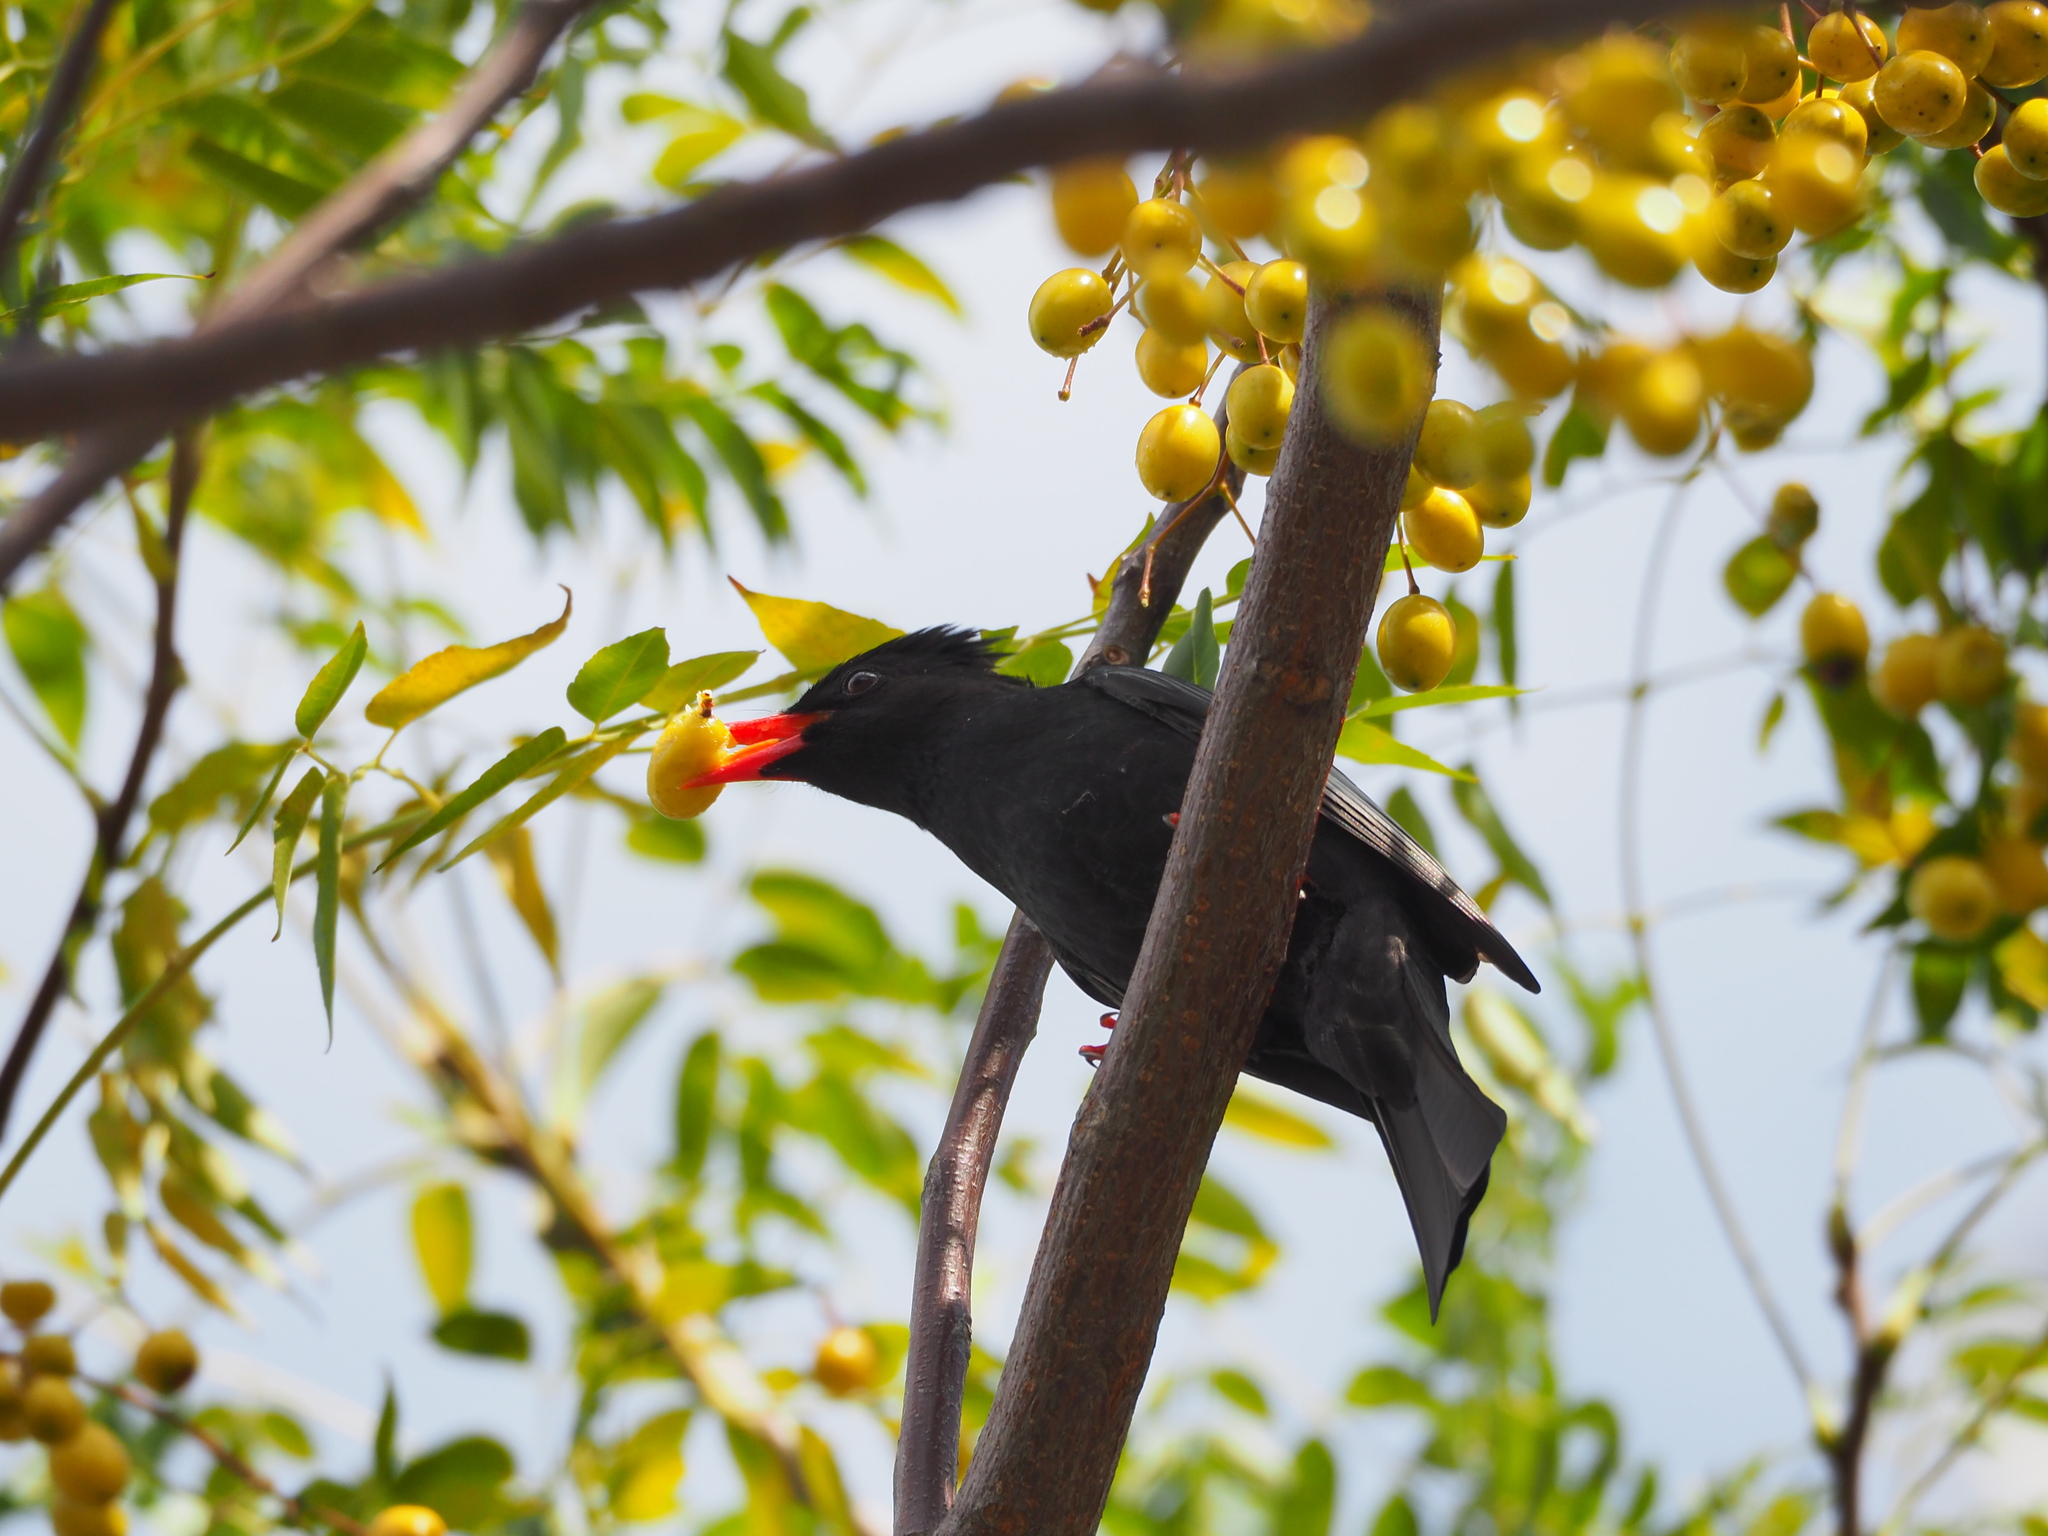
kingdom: Animalia
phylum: Chordata
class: Aves
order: Passeriformes
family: Pycnonotidae
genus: Hypsipetes
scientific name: Hypsipetes leucocephalus
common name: Black bulbul
